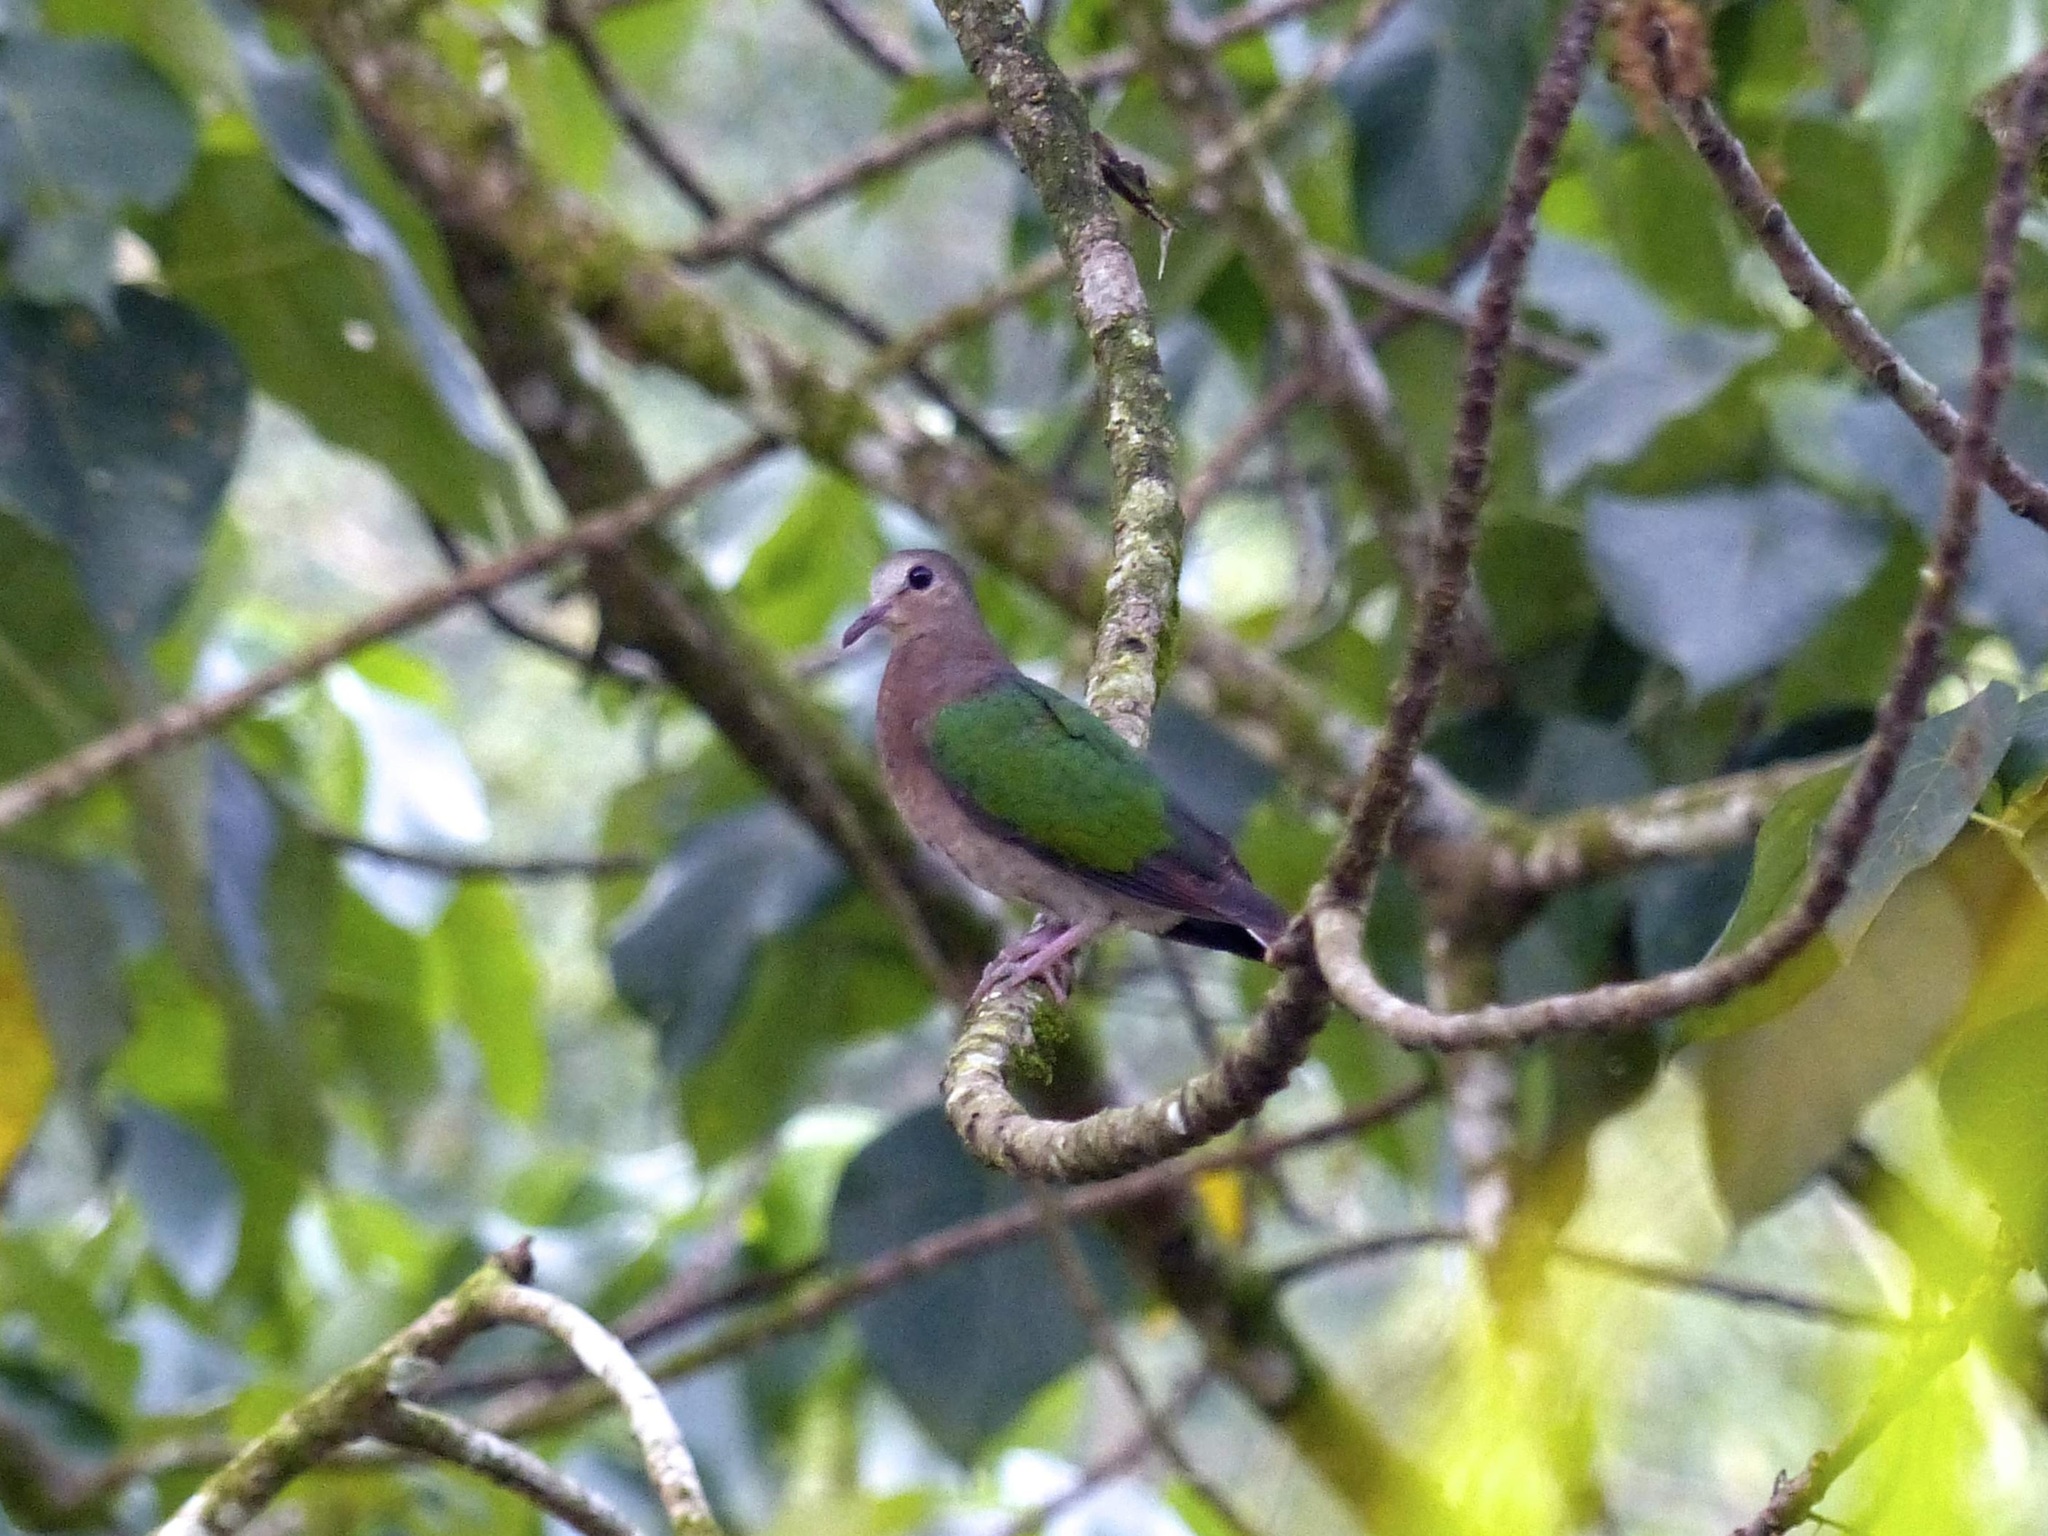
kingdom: Animalia
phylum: Chordata
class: Aves
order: Columbiformes
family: Columbidae
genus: Chalcophaps
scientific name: Chalcophaps indica
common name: Common emerald dove
